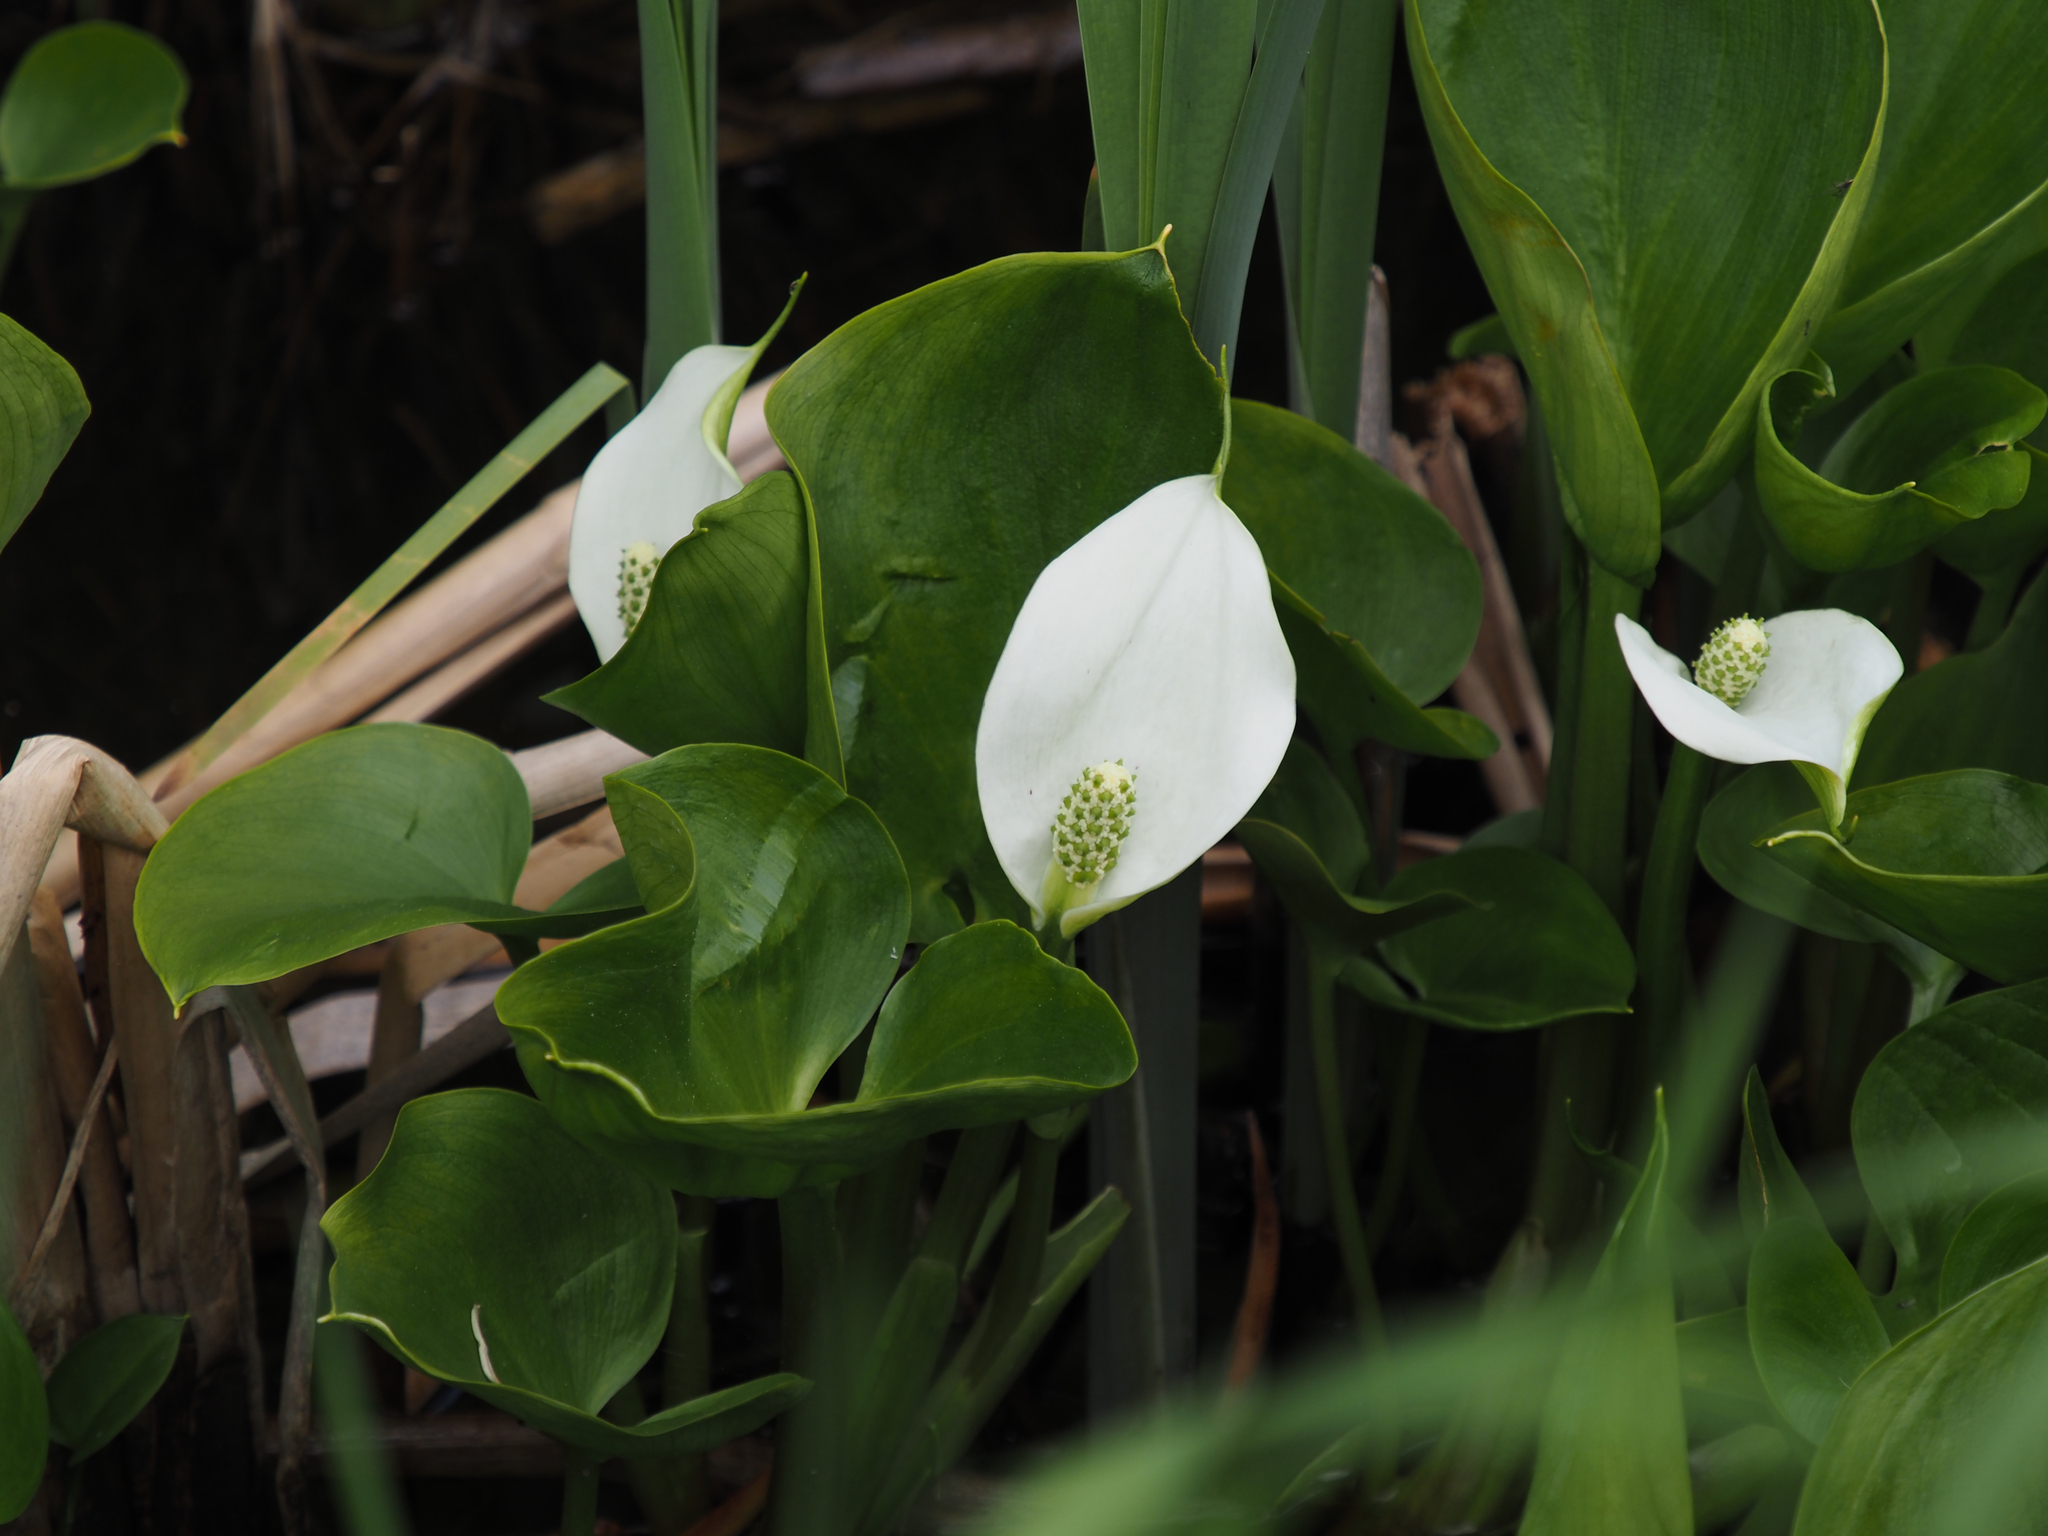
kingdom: Plantae
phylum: Tracheophyta
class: Liliopsida
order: Alismatales
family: Araceae
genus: Calla
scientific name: Calla palustris
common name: Bog arum
